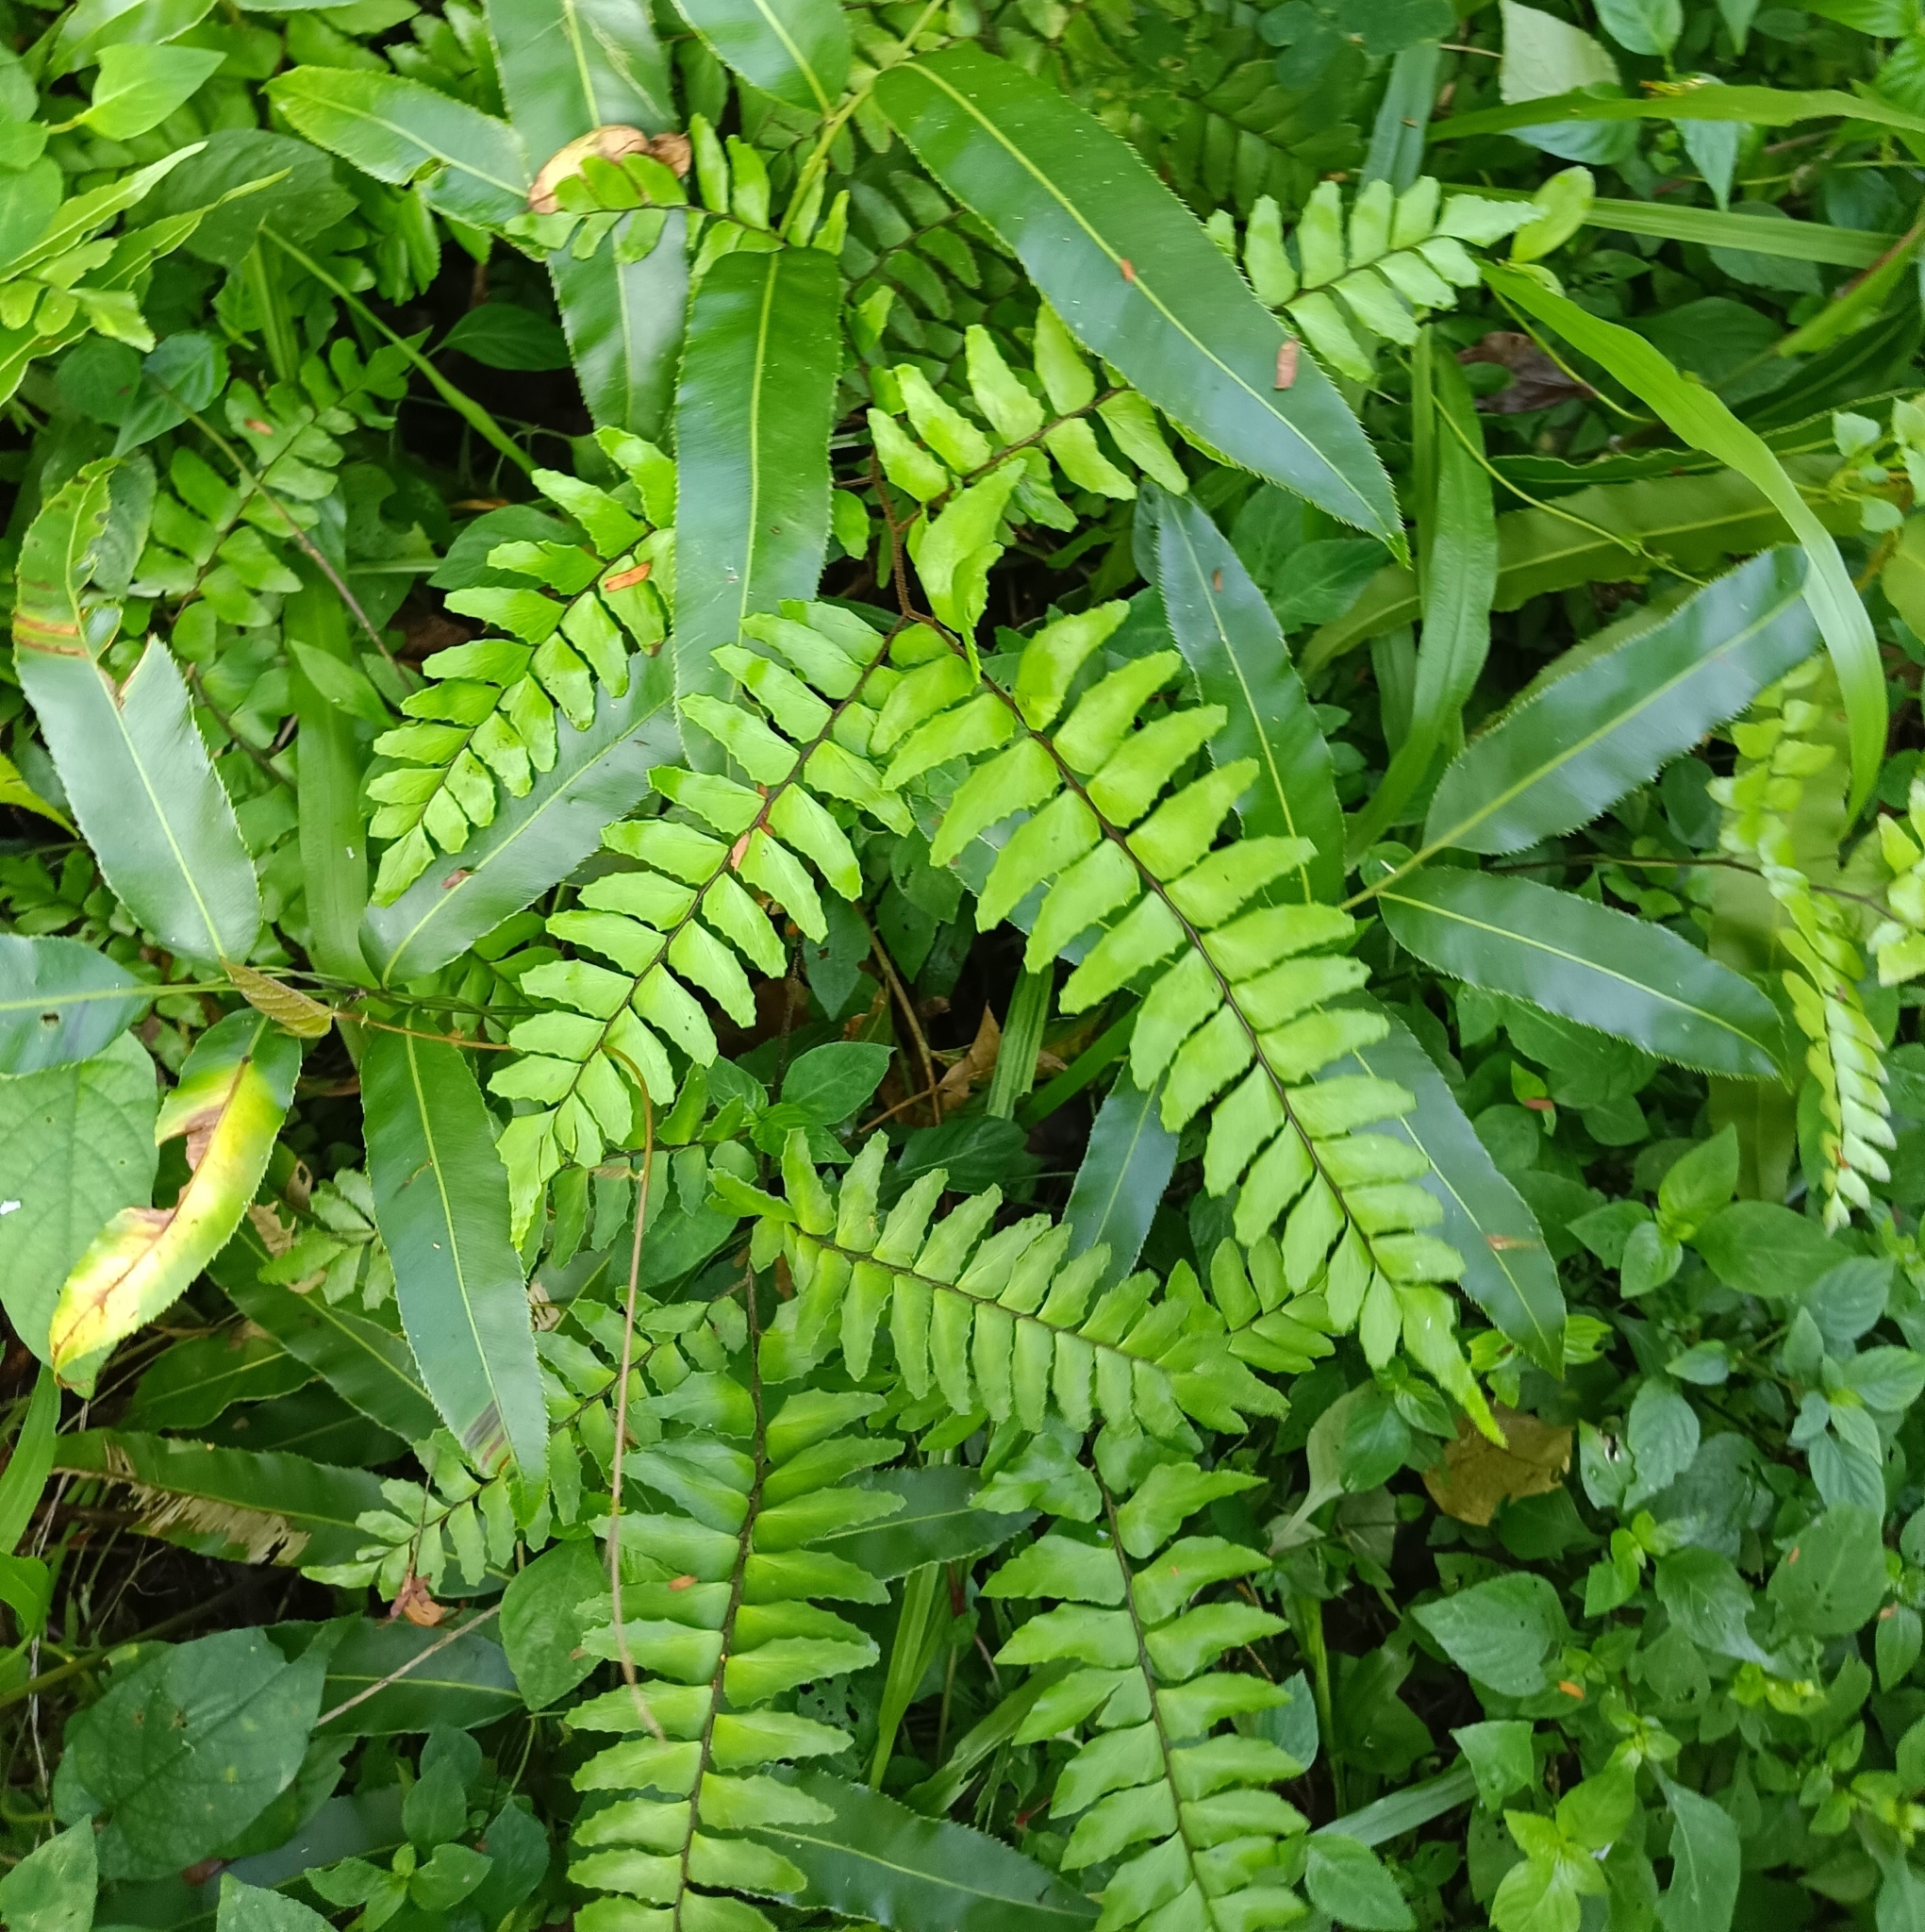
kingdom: Plantae
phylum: Tracheophyta
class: Polypodiopsida
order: Polypodiales
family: Pteridaceae
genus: Adiantum
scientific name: Adiantum latifolium
